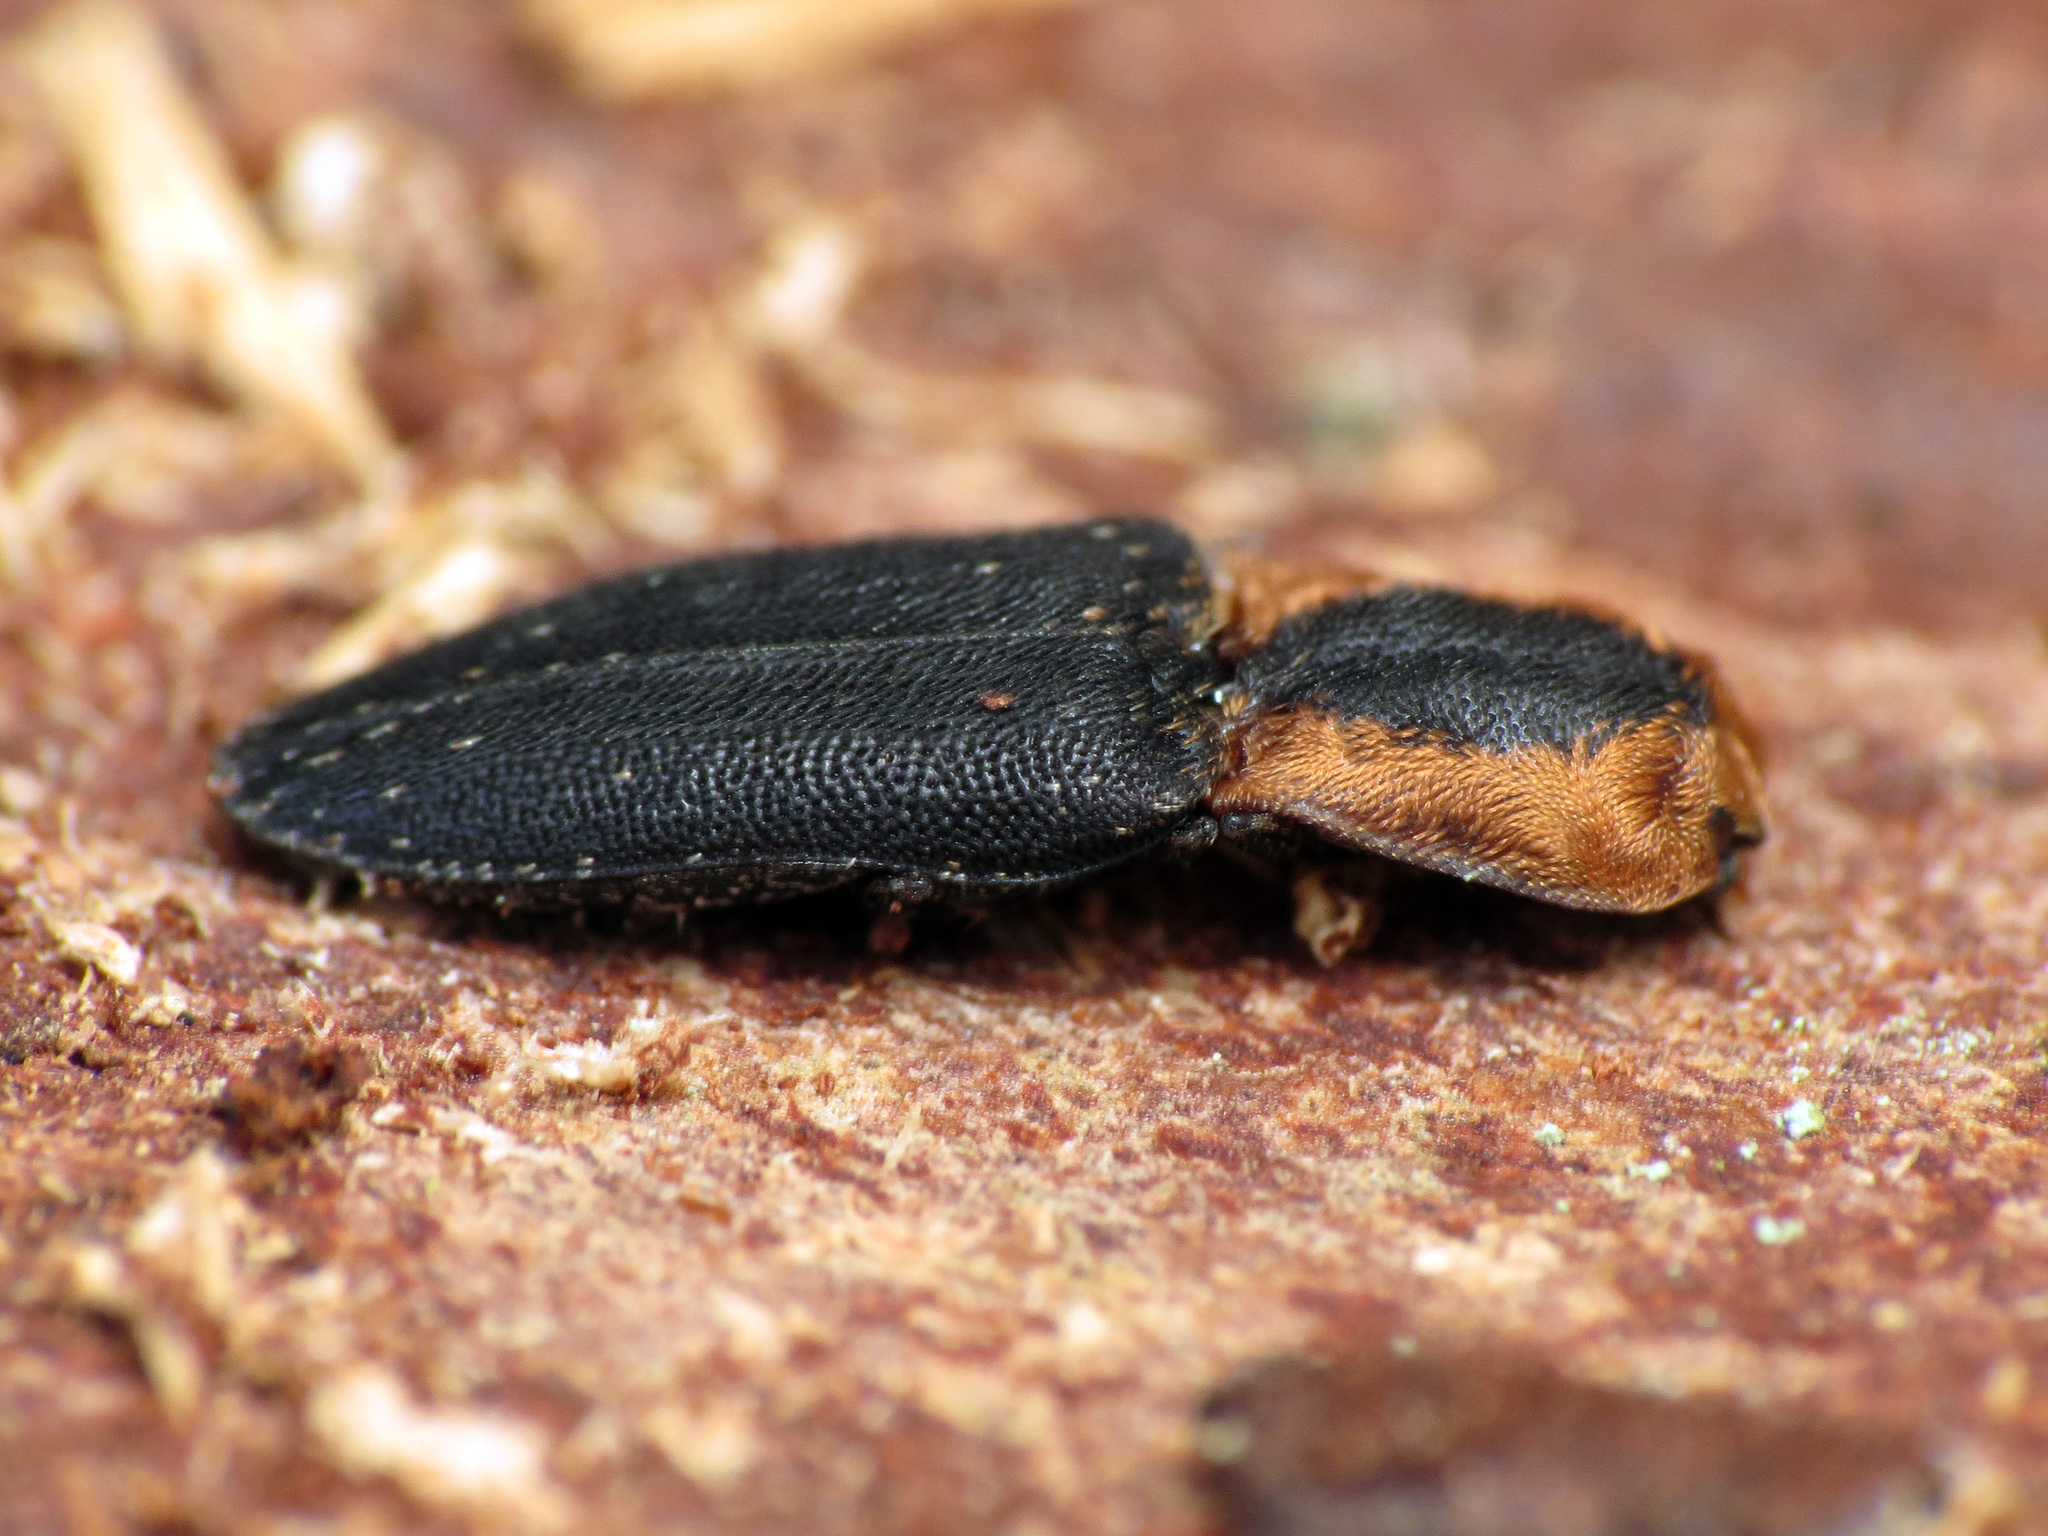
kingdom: Animalia
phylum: Arthropoda
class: Insecta
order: Coleoptera
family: Elateridae
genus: Lacon
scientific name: Lacon discoideus
